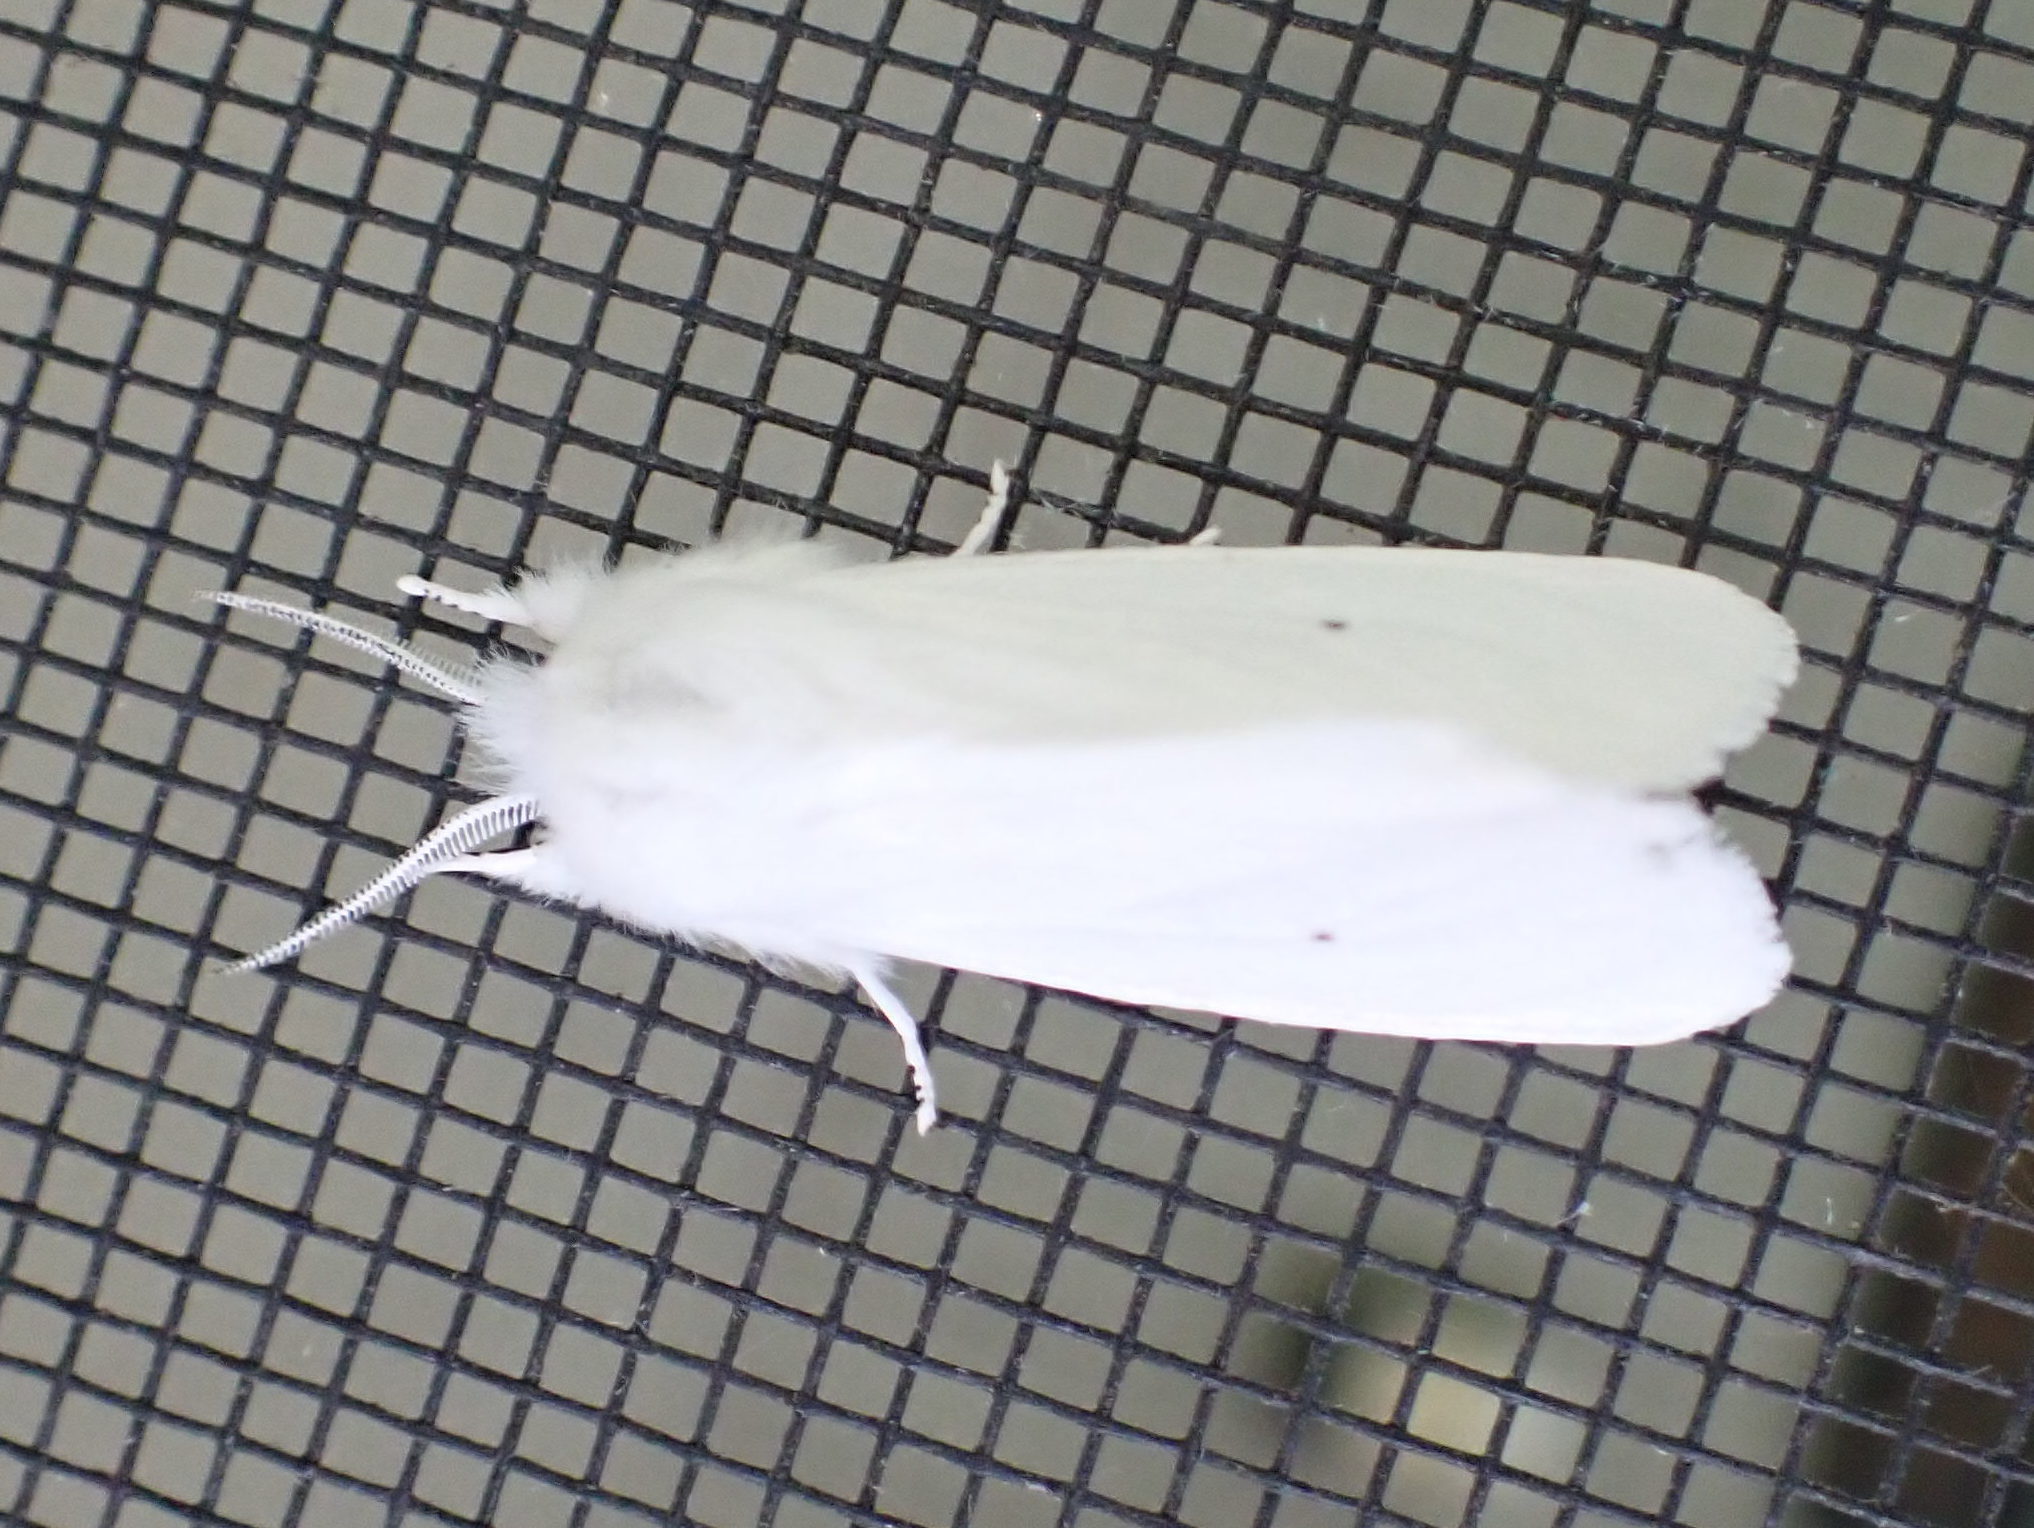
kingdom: Animalia
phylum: Arthropoda
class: Insecta
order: Lepidoptera
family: Erebidae
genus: Spilosoma
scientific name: Spilosoma virginica
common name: Virginia tiger moth
